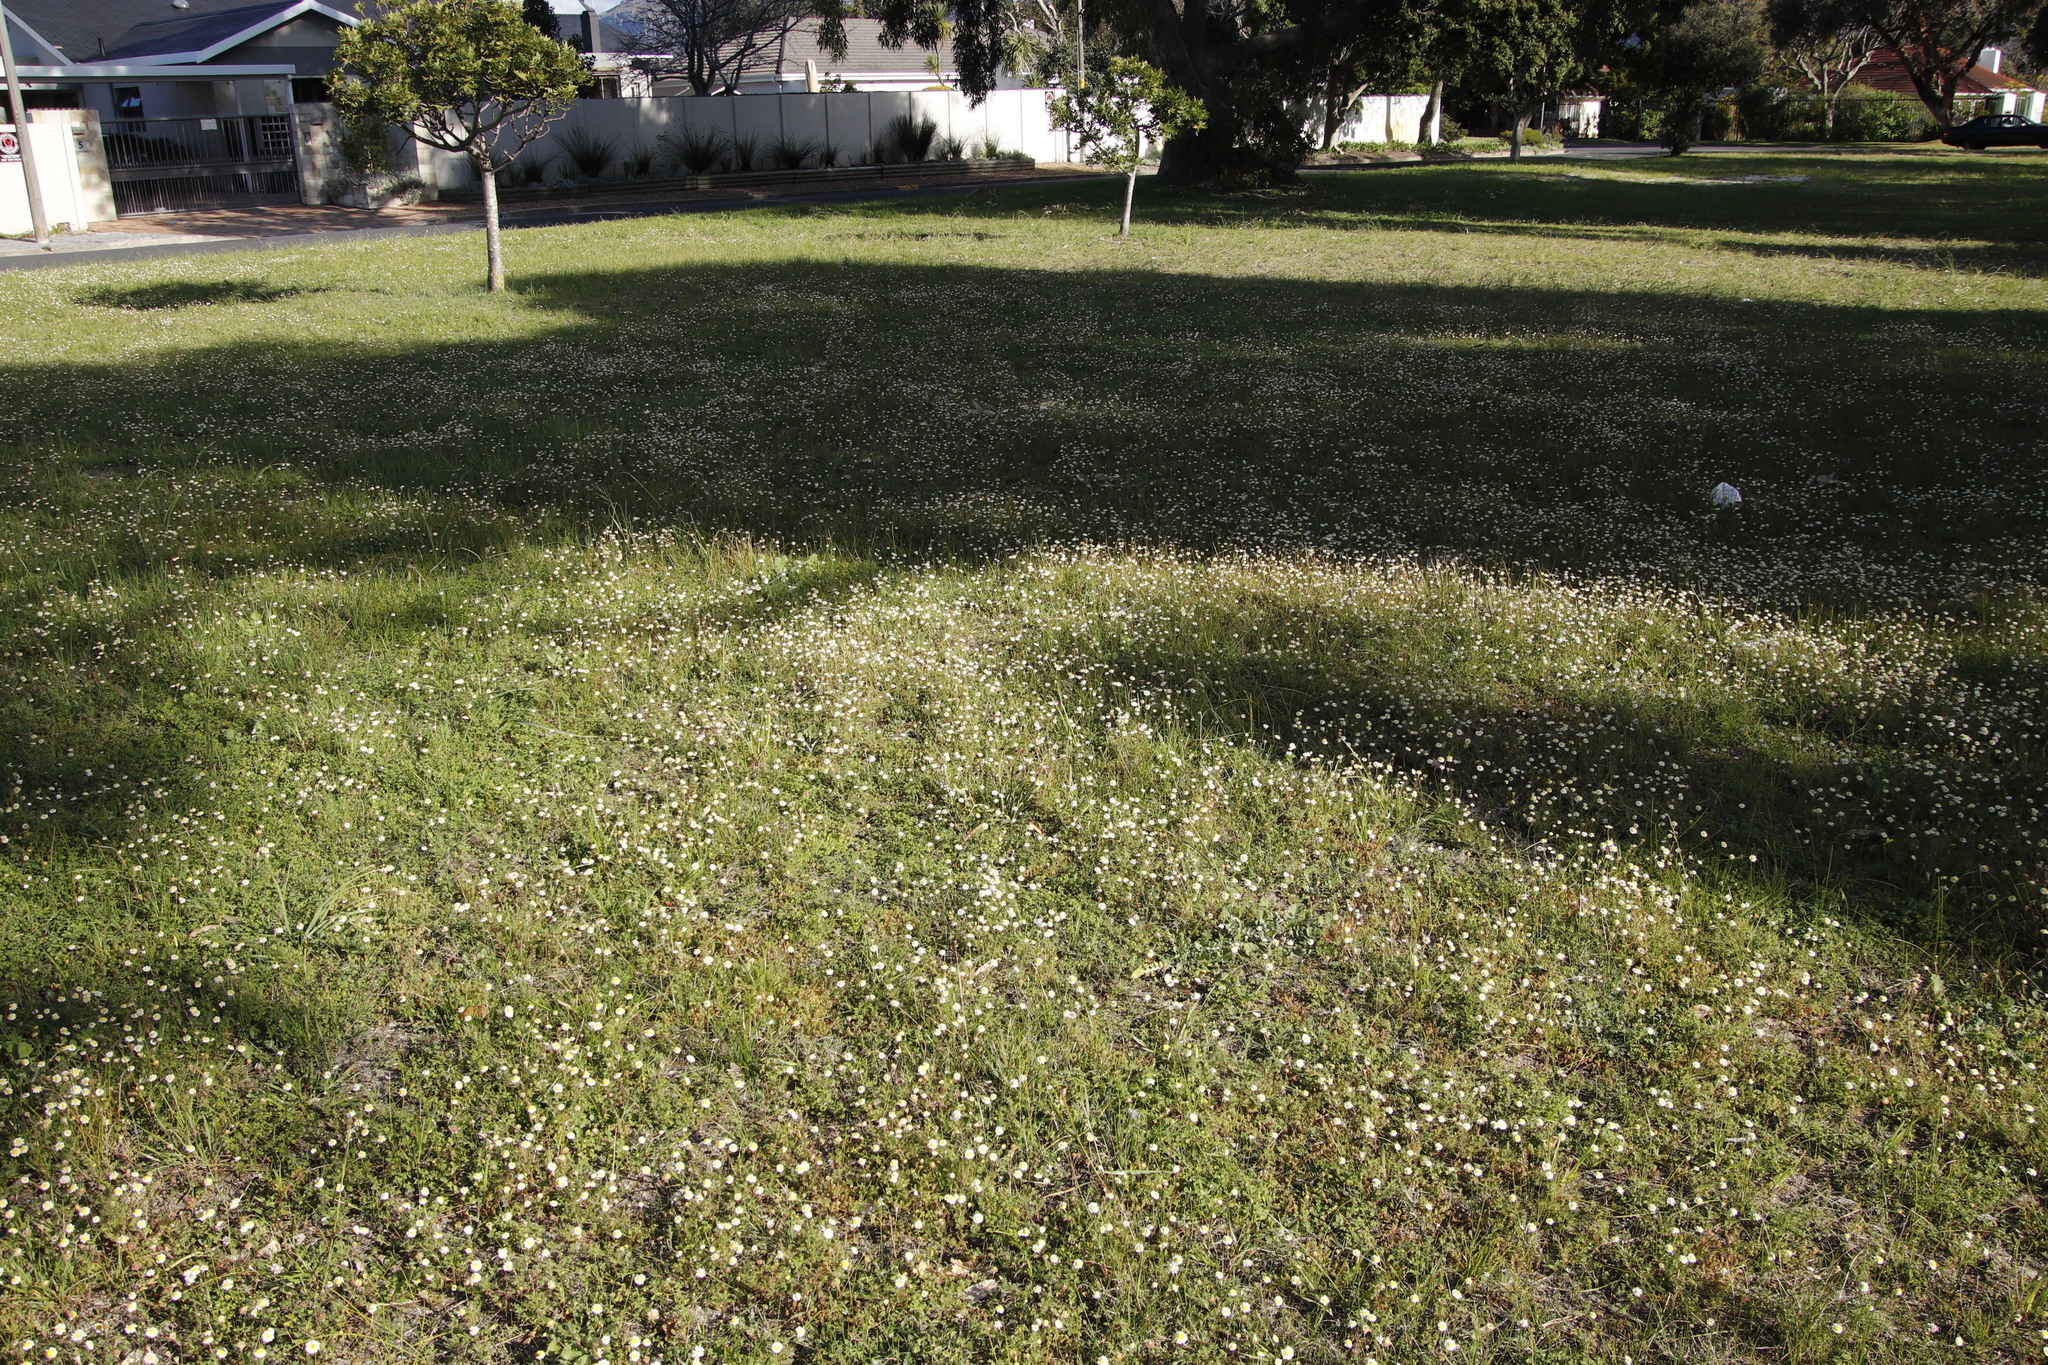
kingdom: Plantae
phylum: Tracheophyta
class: Magnoliopsida
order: Asterales
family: Asteraceae
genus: Cotula
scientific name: Cotula turbinata
